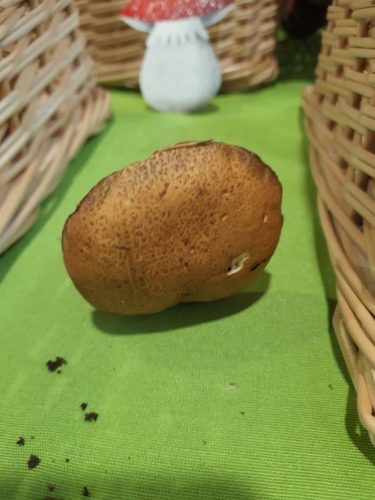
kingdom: Fungi
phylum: Basidiomycota
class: Agaricomycetes
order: Boletales
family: Suillaceae
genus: Suillus
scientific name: Suillus punctipes
